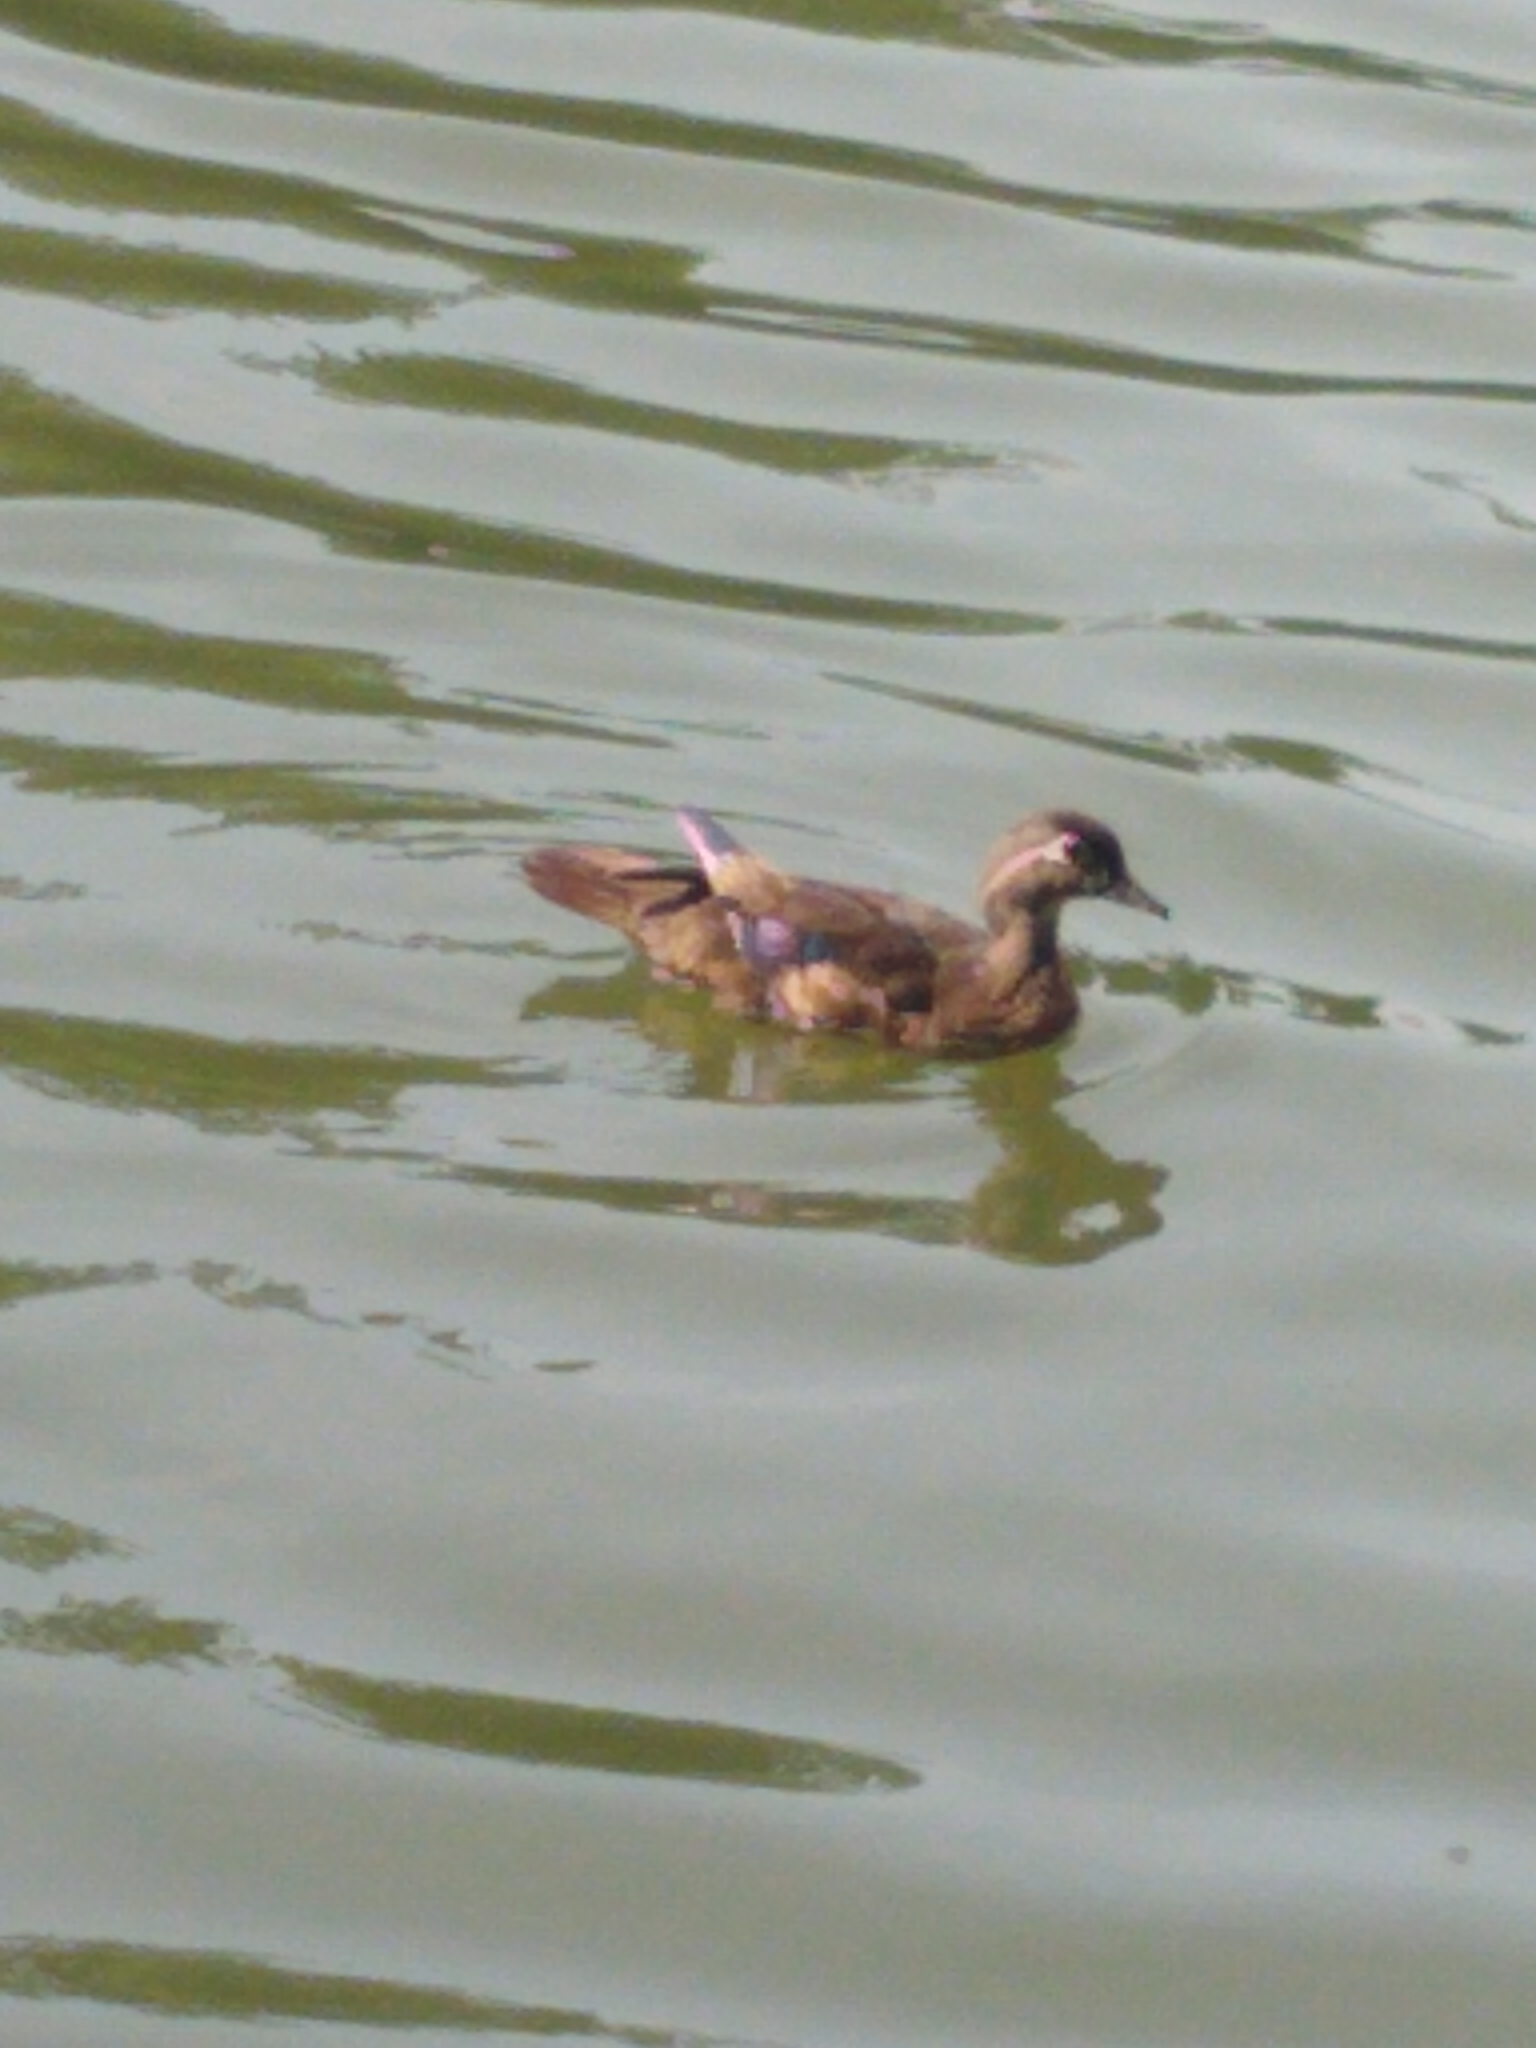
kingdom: Animalia
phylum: Chordata
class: Aves
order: Anseriformes
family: Anatidae
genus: Aix
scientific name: Aix sponsa
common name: Wood duck
